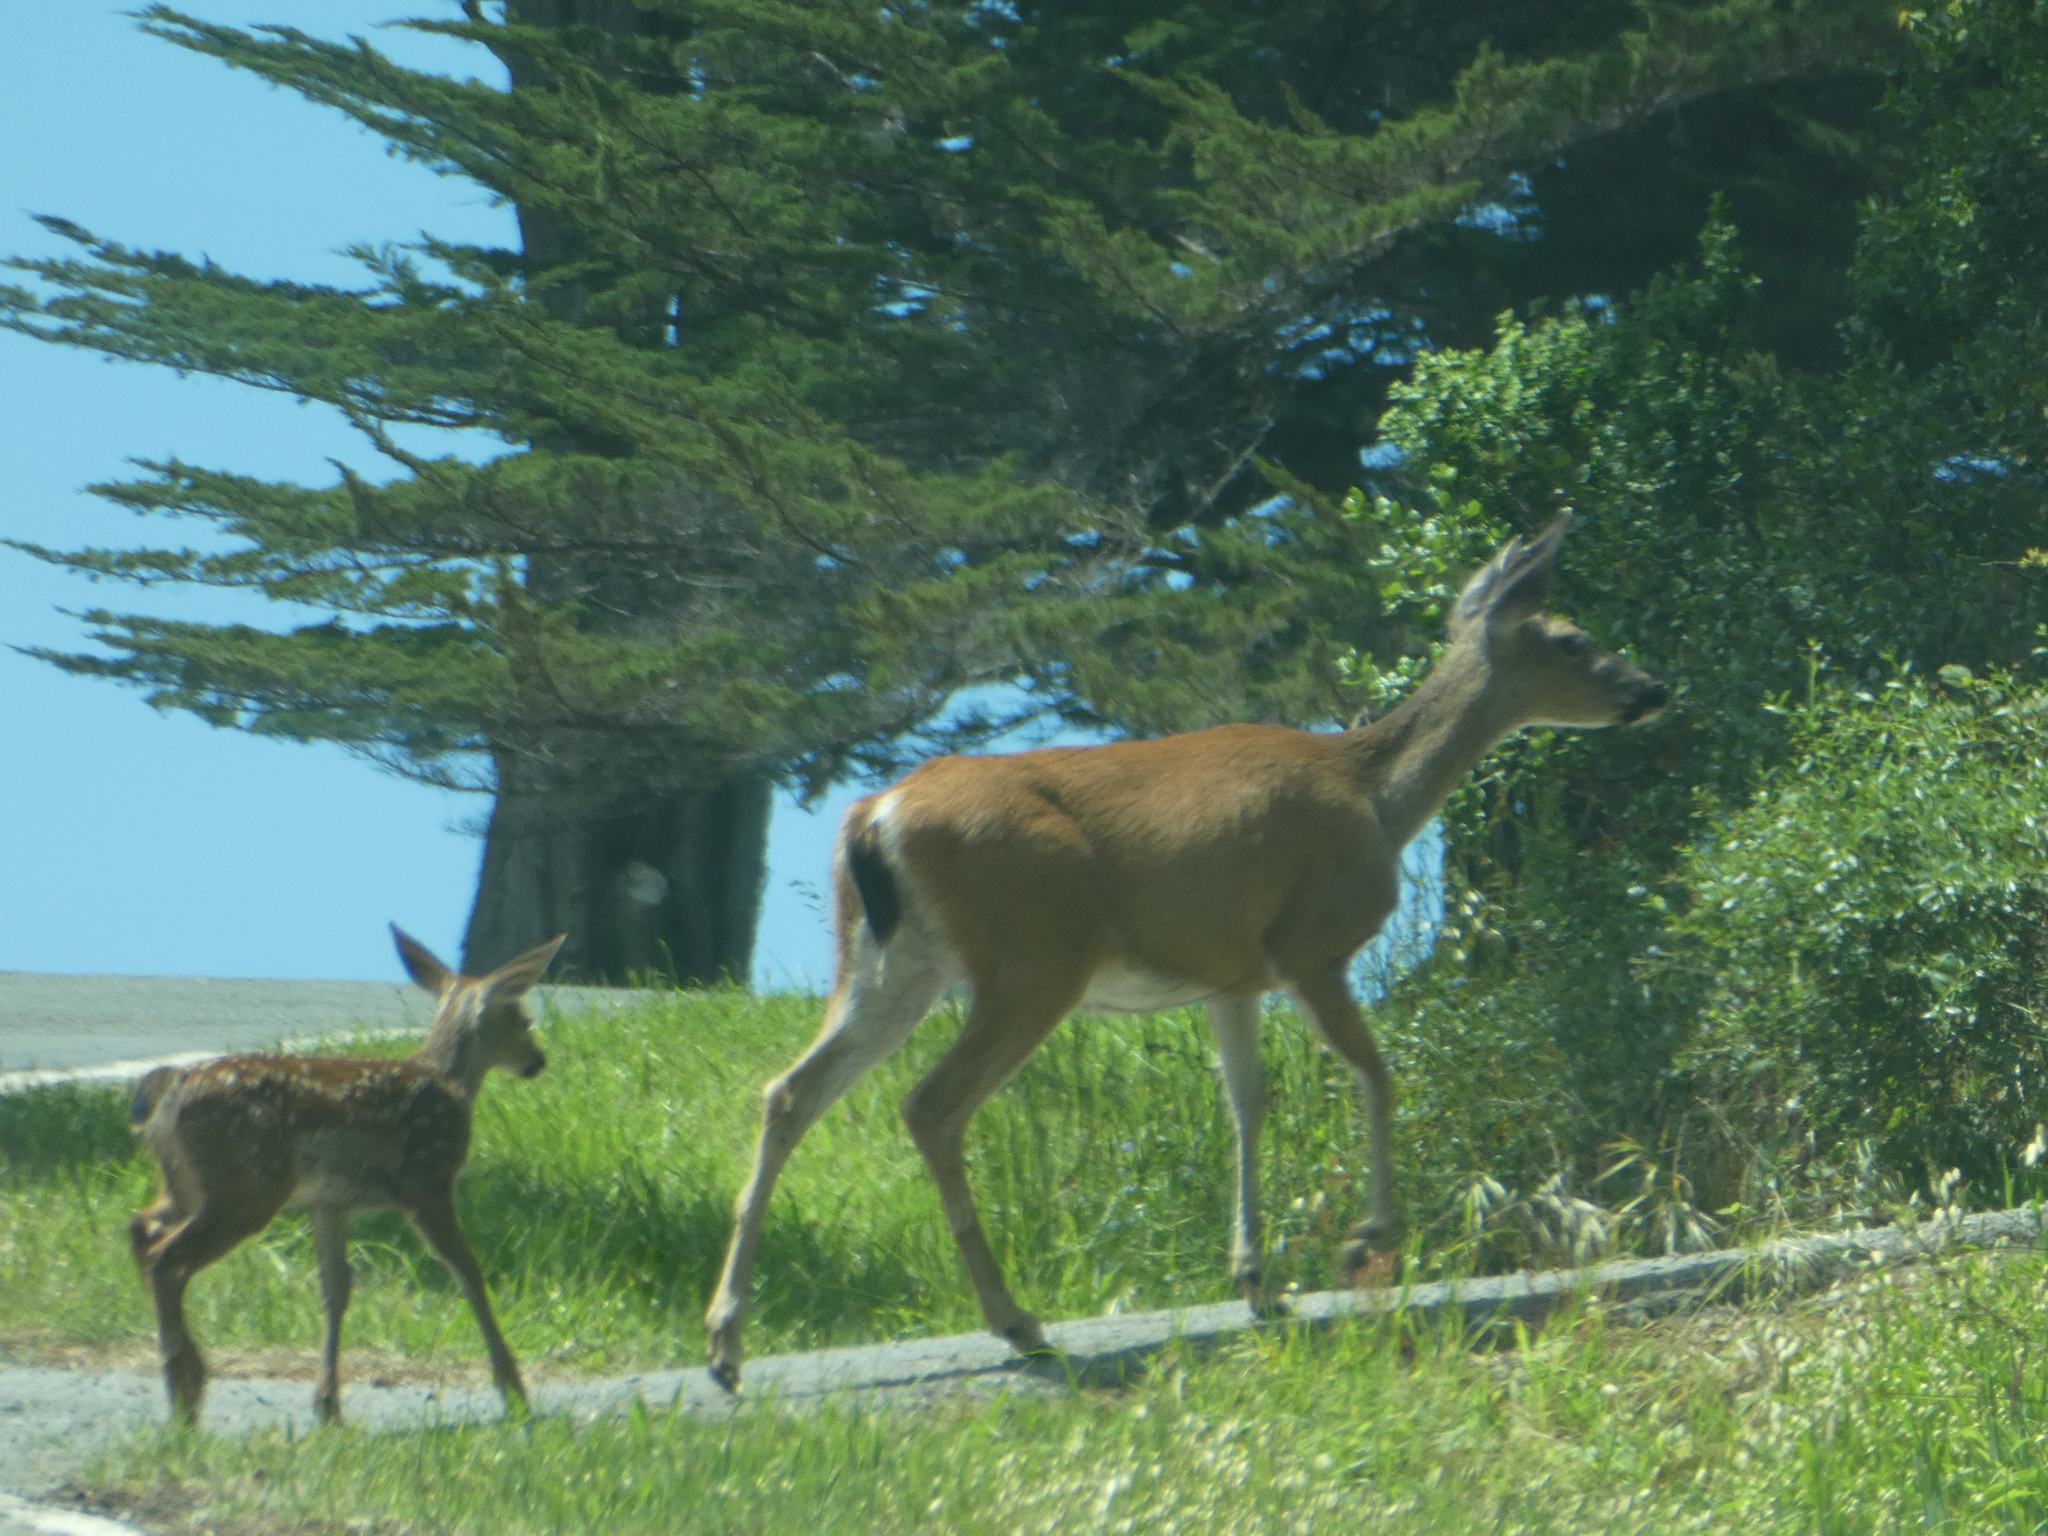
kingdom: Animalia
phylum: Chordata
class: Mammalia
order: Artiodactyla
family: Cervidae
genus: Odocoileus
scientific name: Odocoileus hemionus
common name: Mule deer
